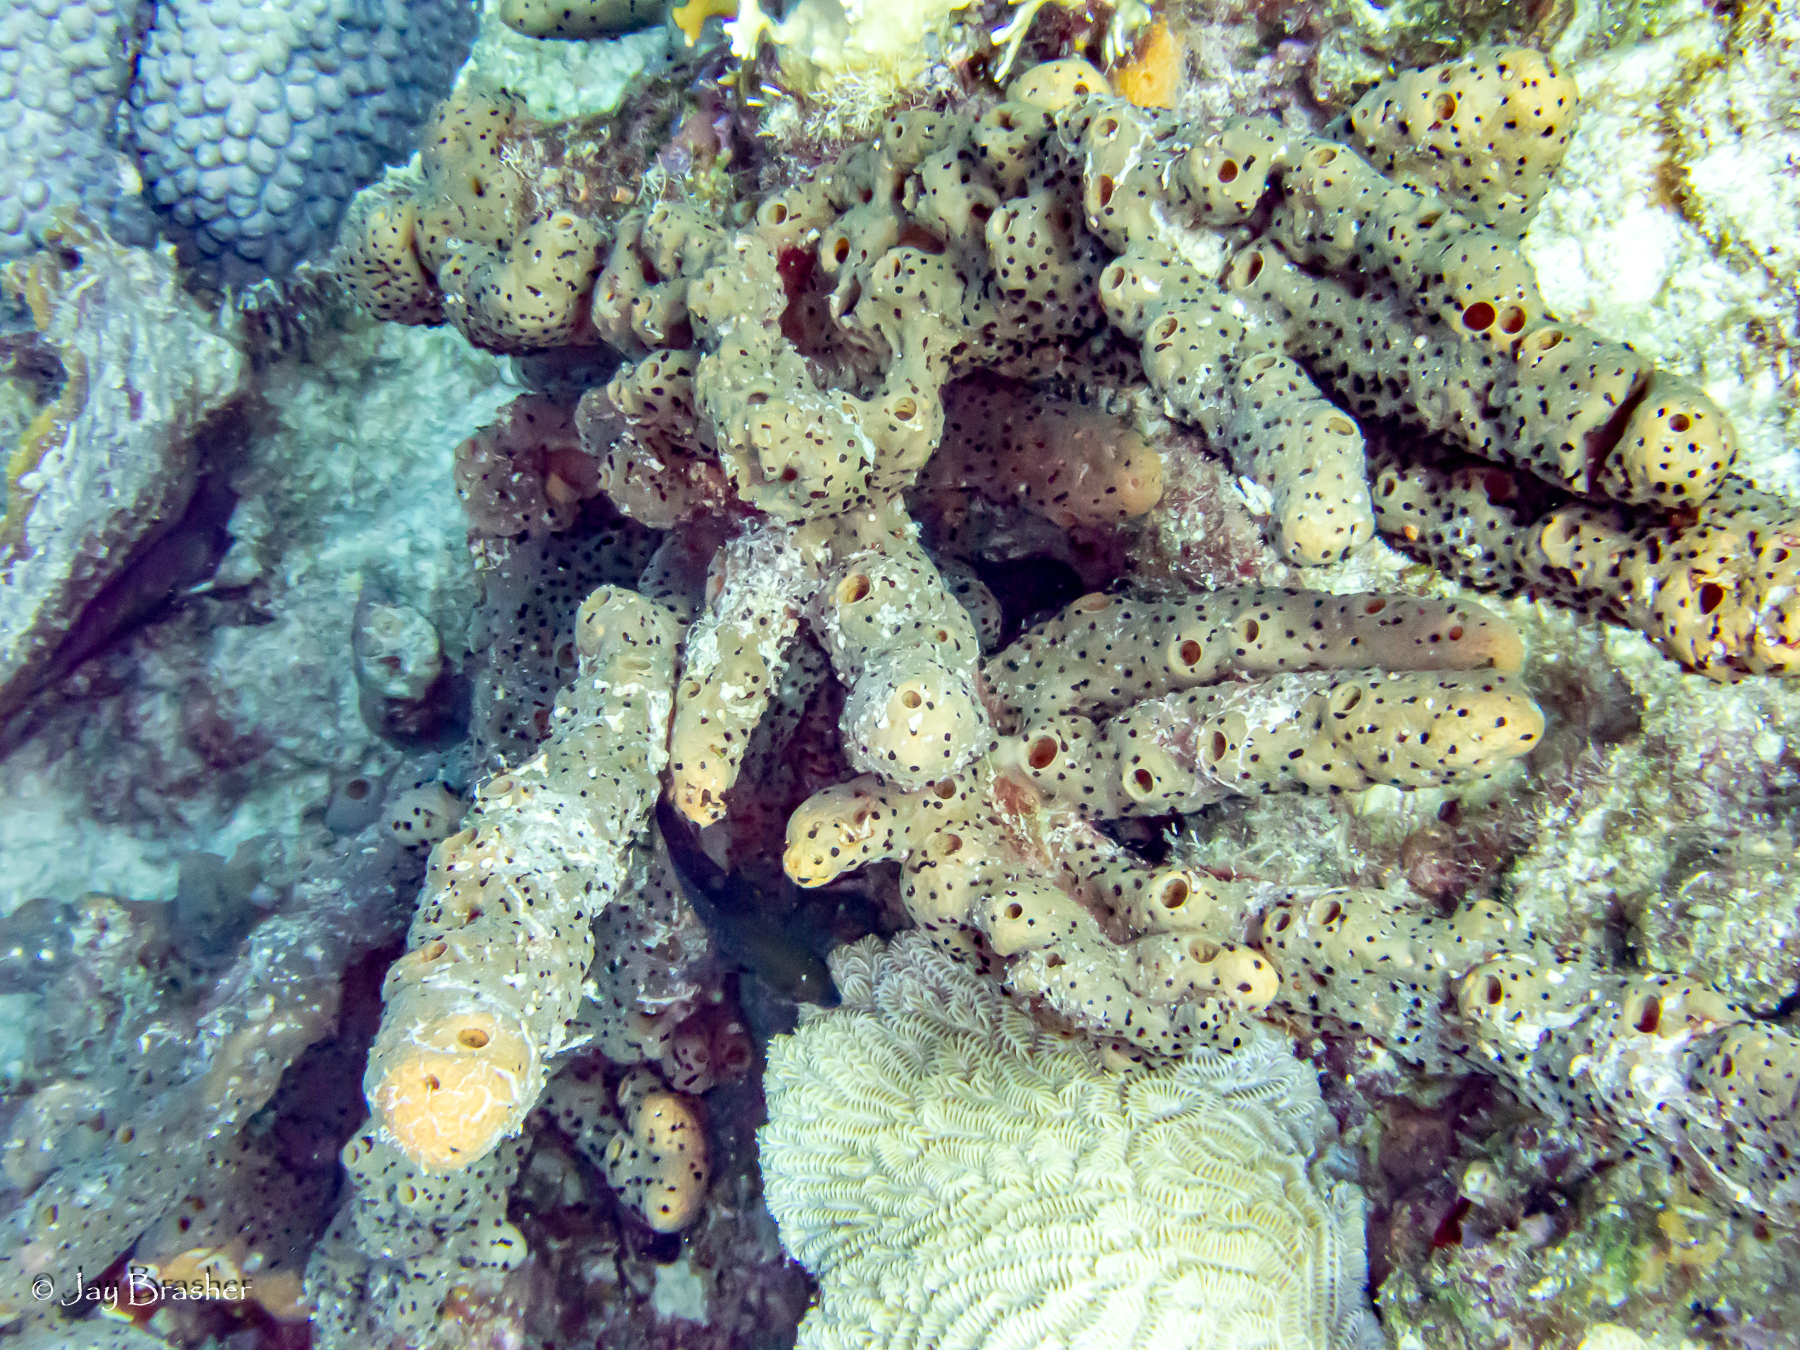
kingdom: Animalia
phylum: Porifera
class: Demospongiae
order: Agelasida
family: Agelasidae
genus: Agelas
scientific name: Agelas conifera
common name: Brown tube sponge
